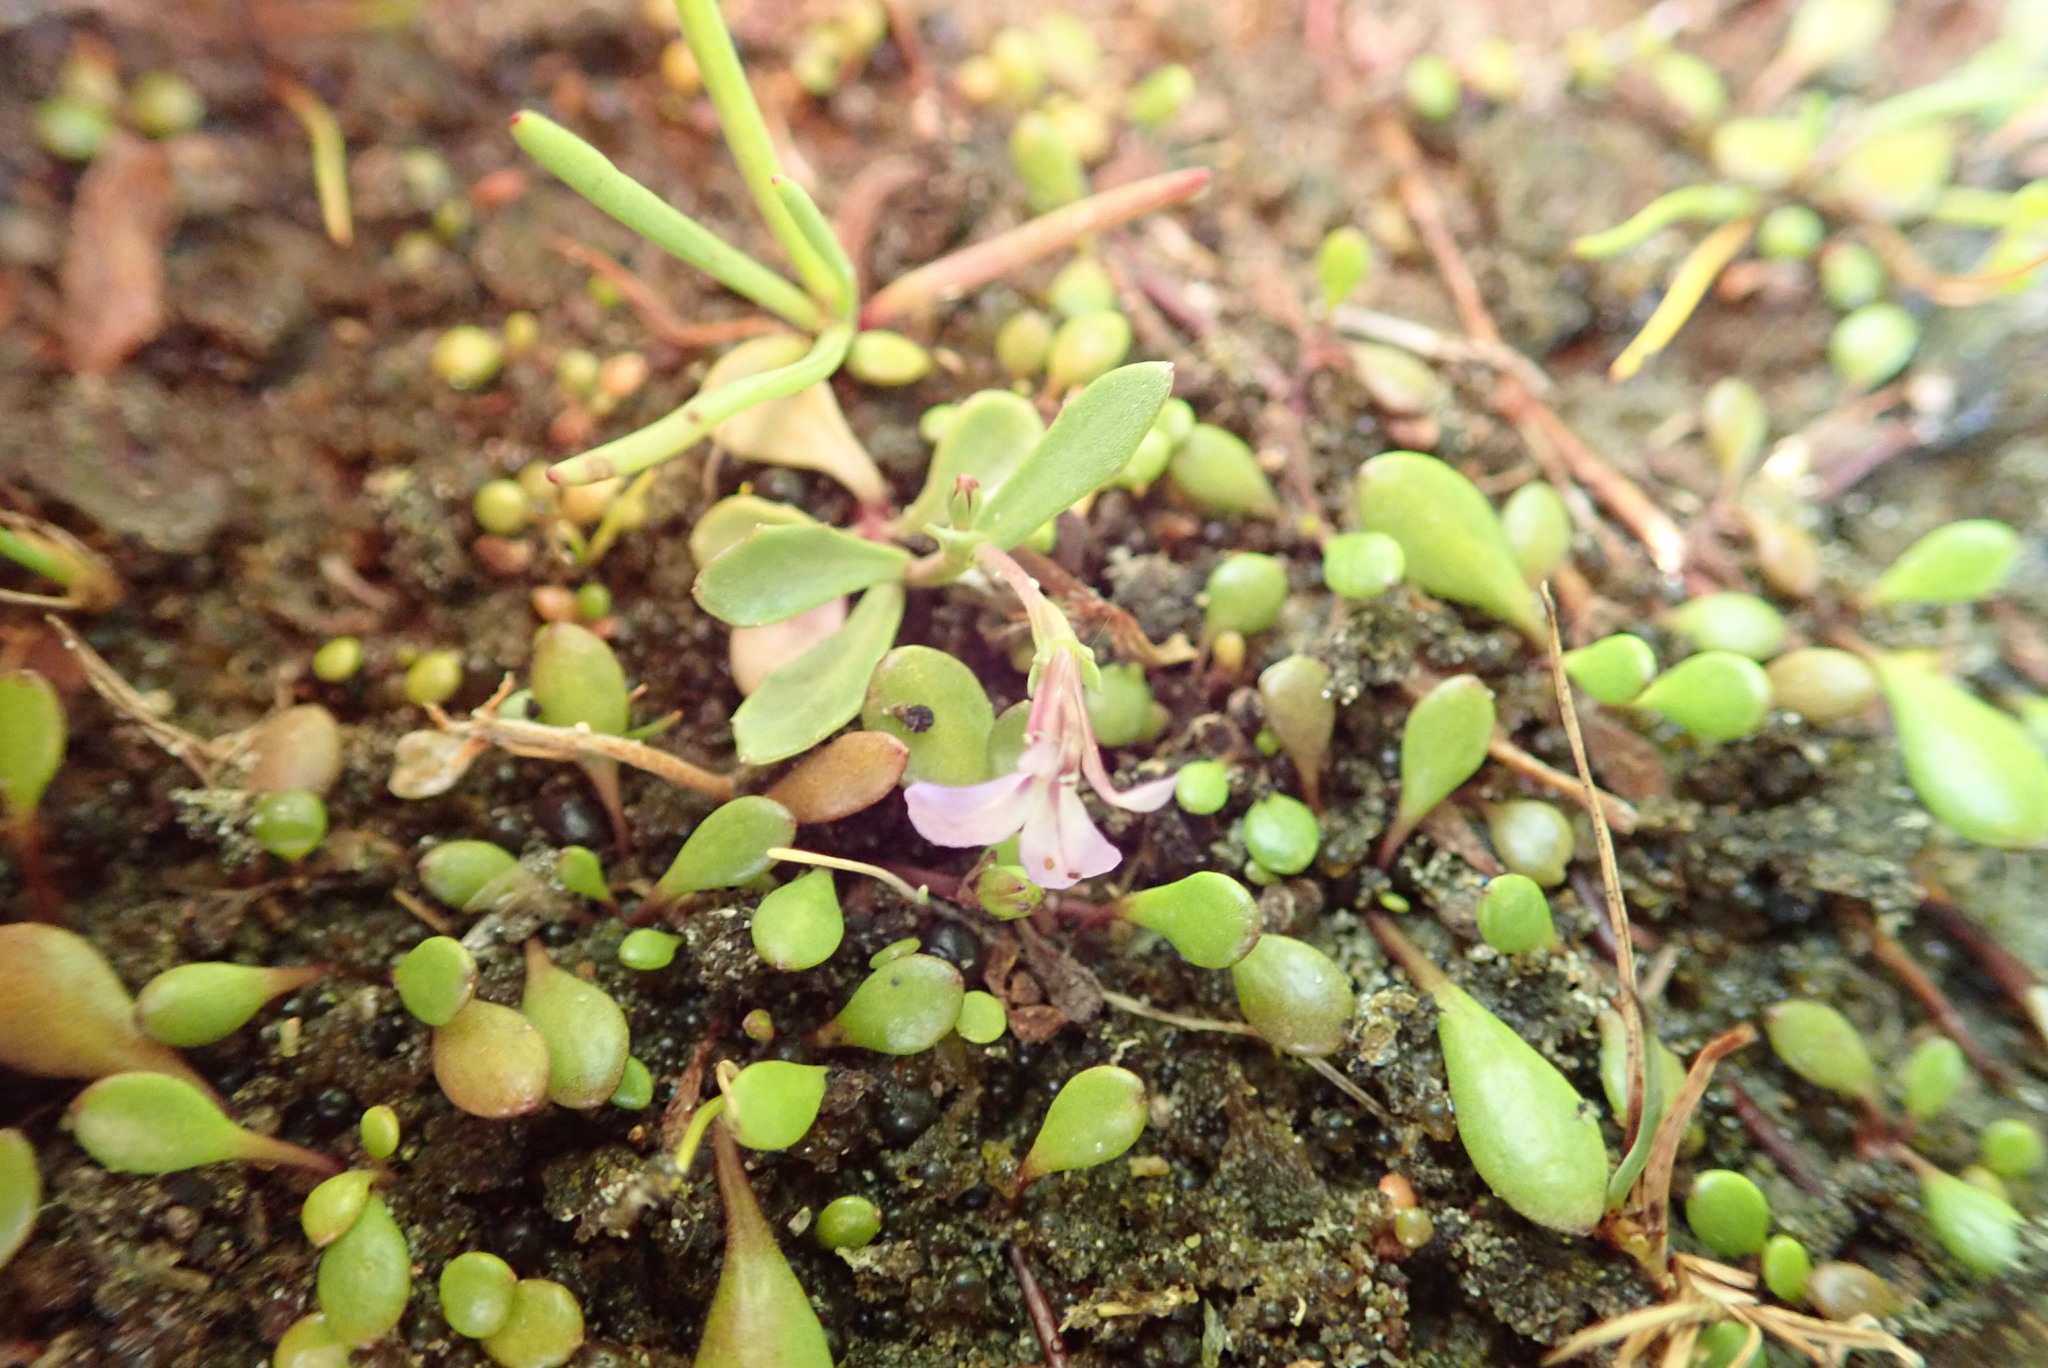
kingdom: Plantae
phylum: Tracheophyta
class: Magnoliopsida
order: Asterales
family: Campanulaceae
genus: Lobelia
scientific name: Lobelia anceps
